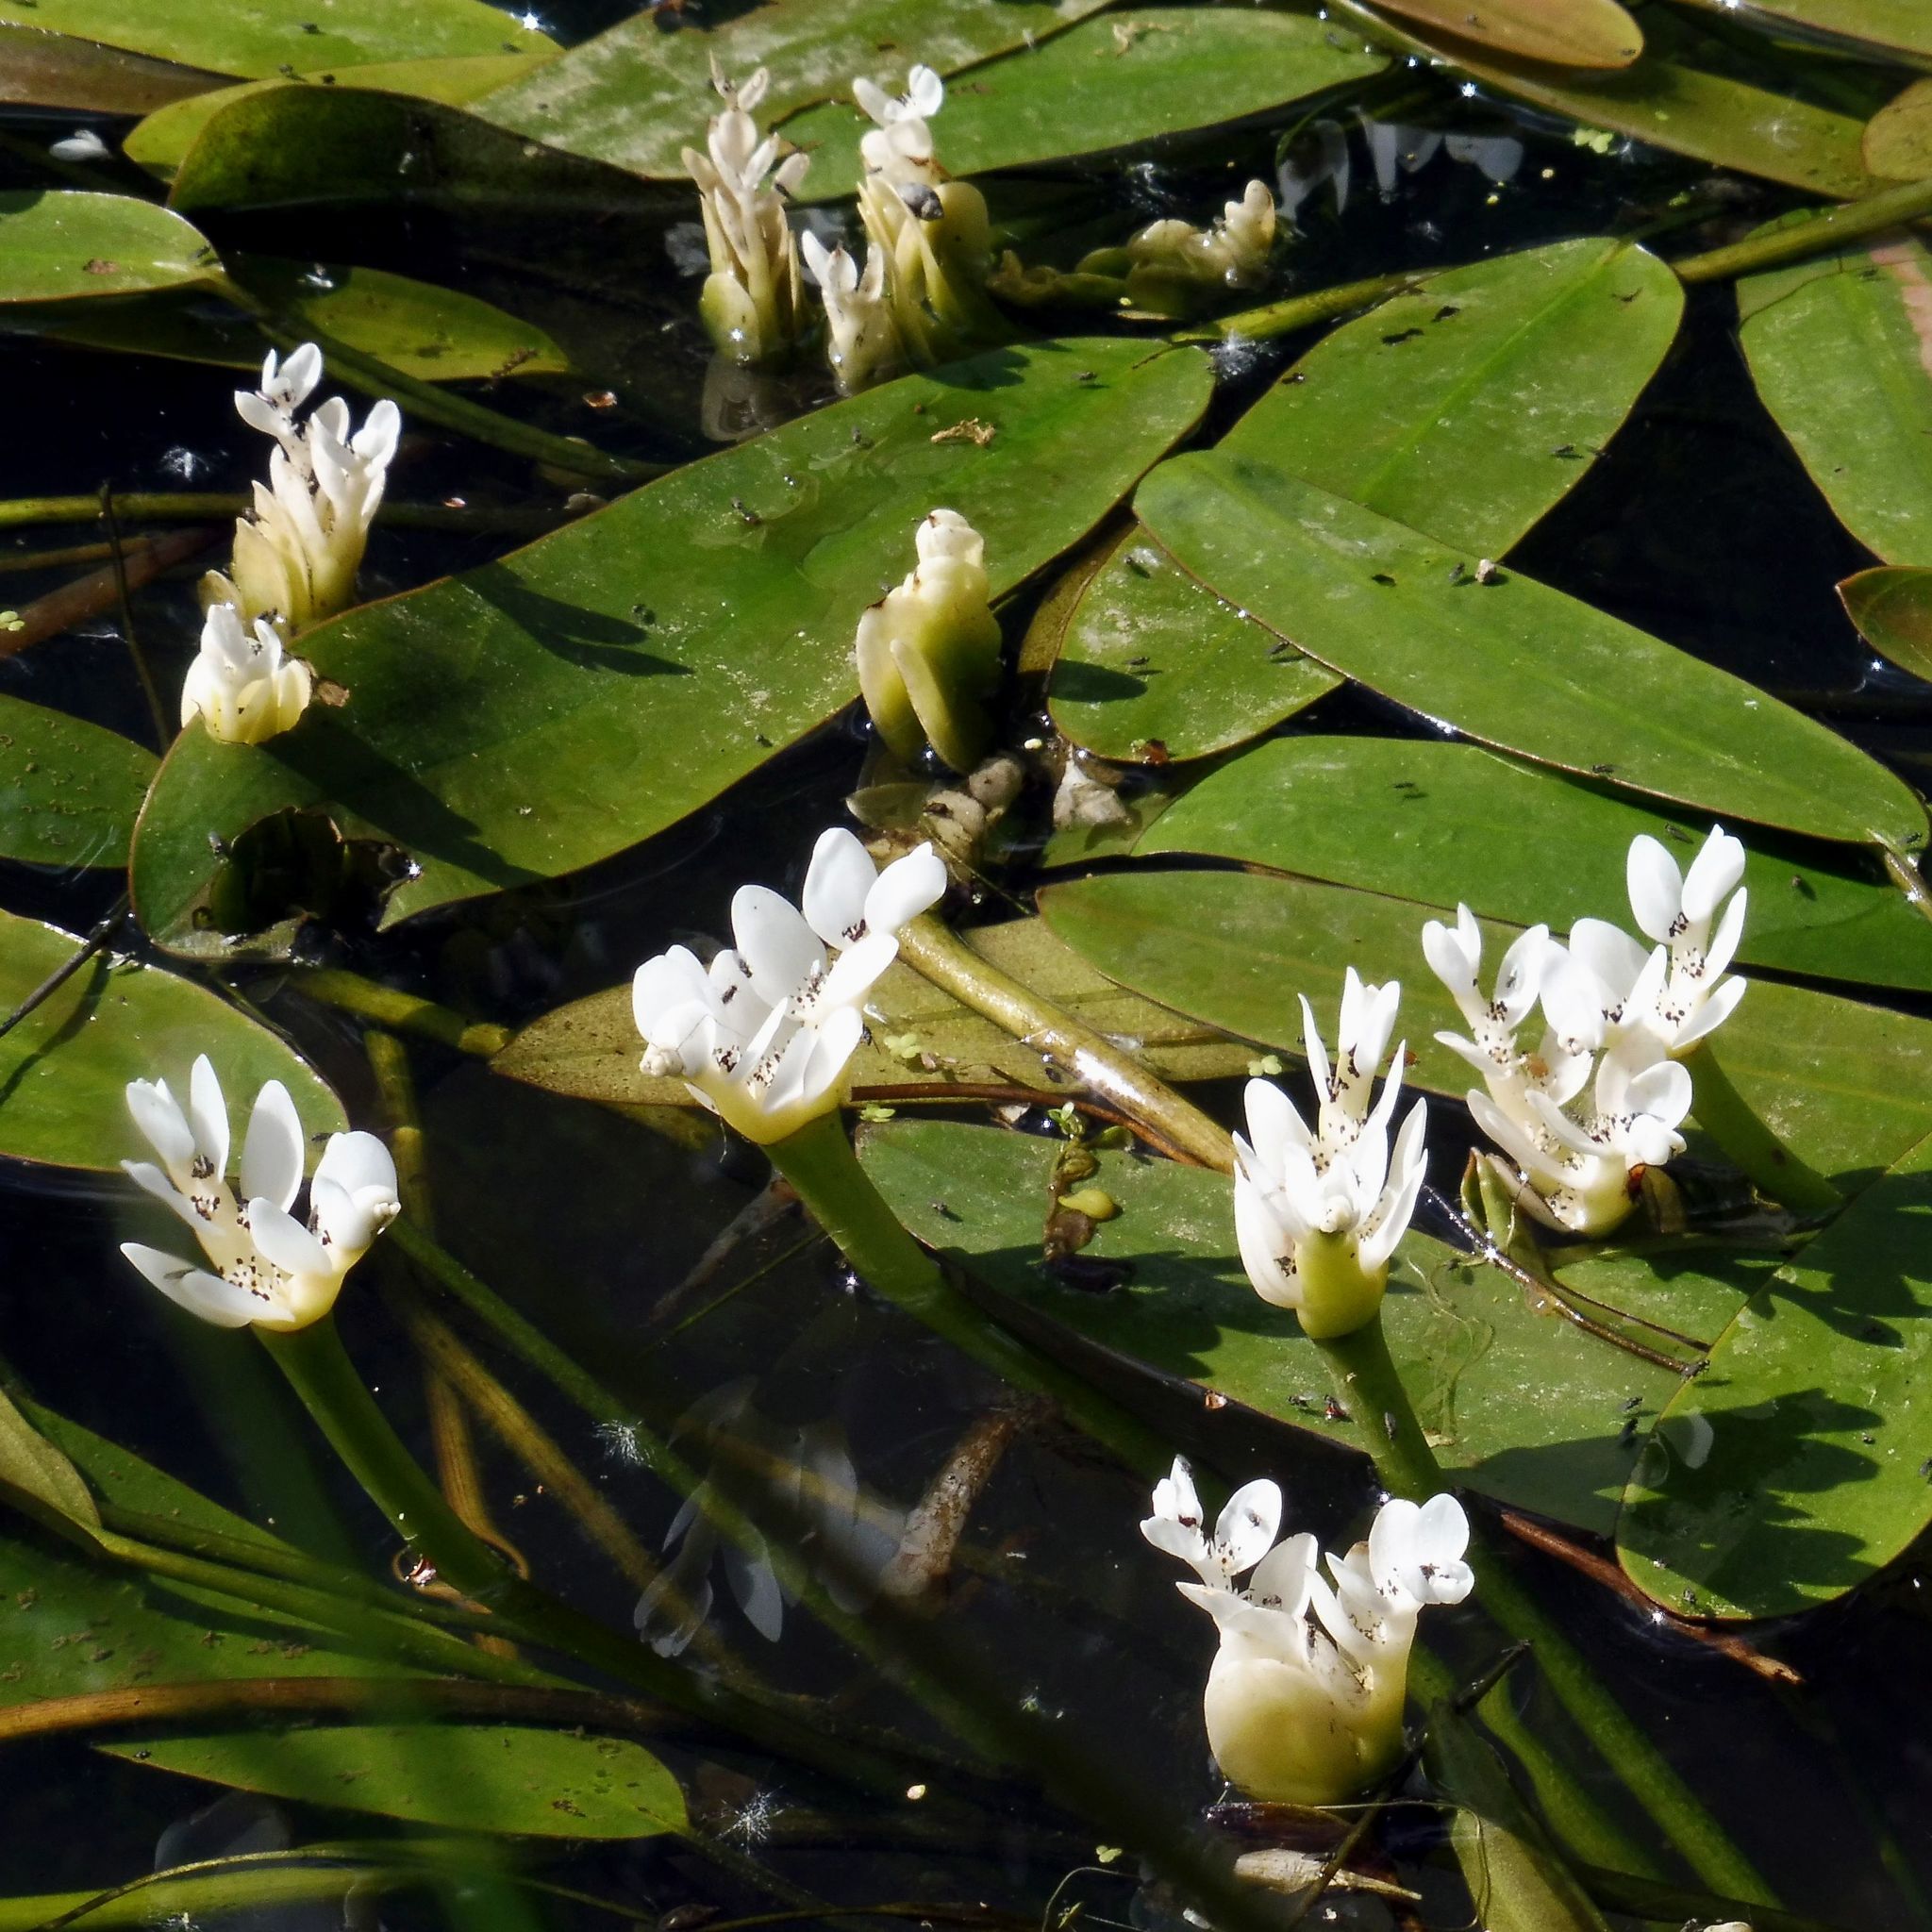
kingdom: Plantae
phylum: Tracheophyta
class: Liliopsida
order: Alismatales
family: Aponogetonaceae
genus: Aponogeton
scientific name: Aponogeton distachyos
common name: Cape-pondweed
